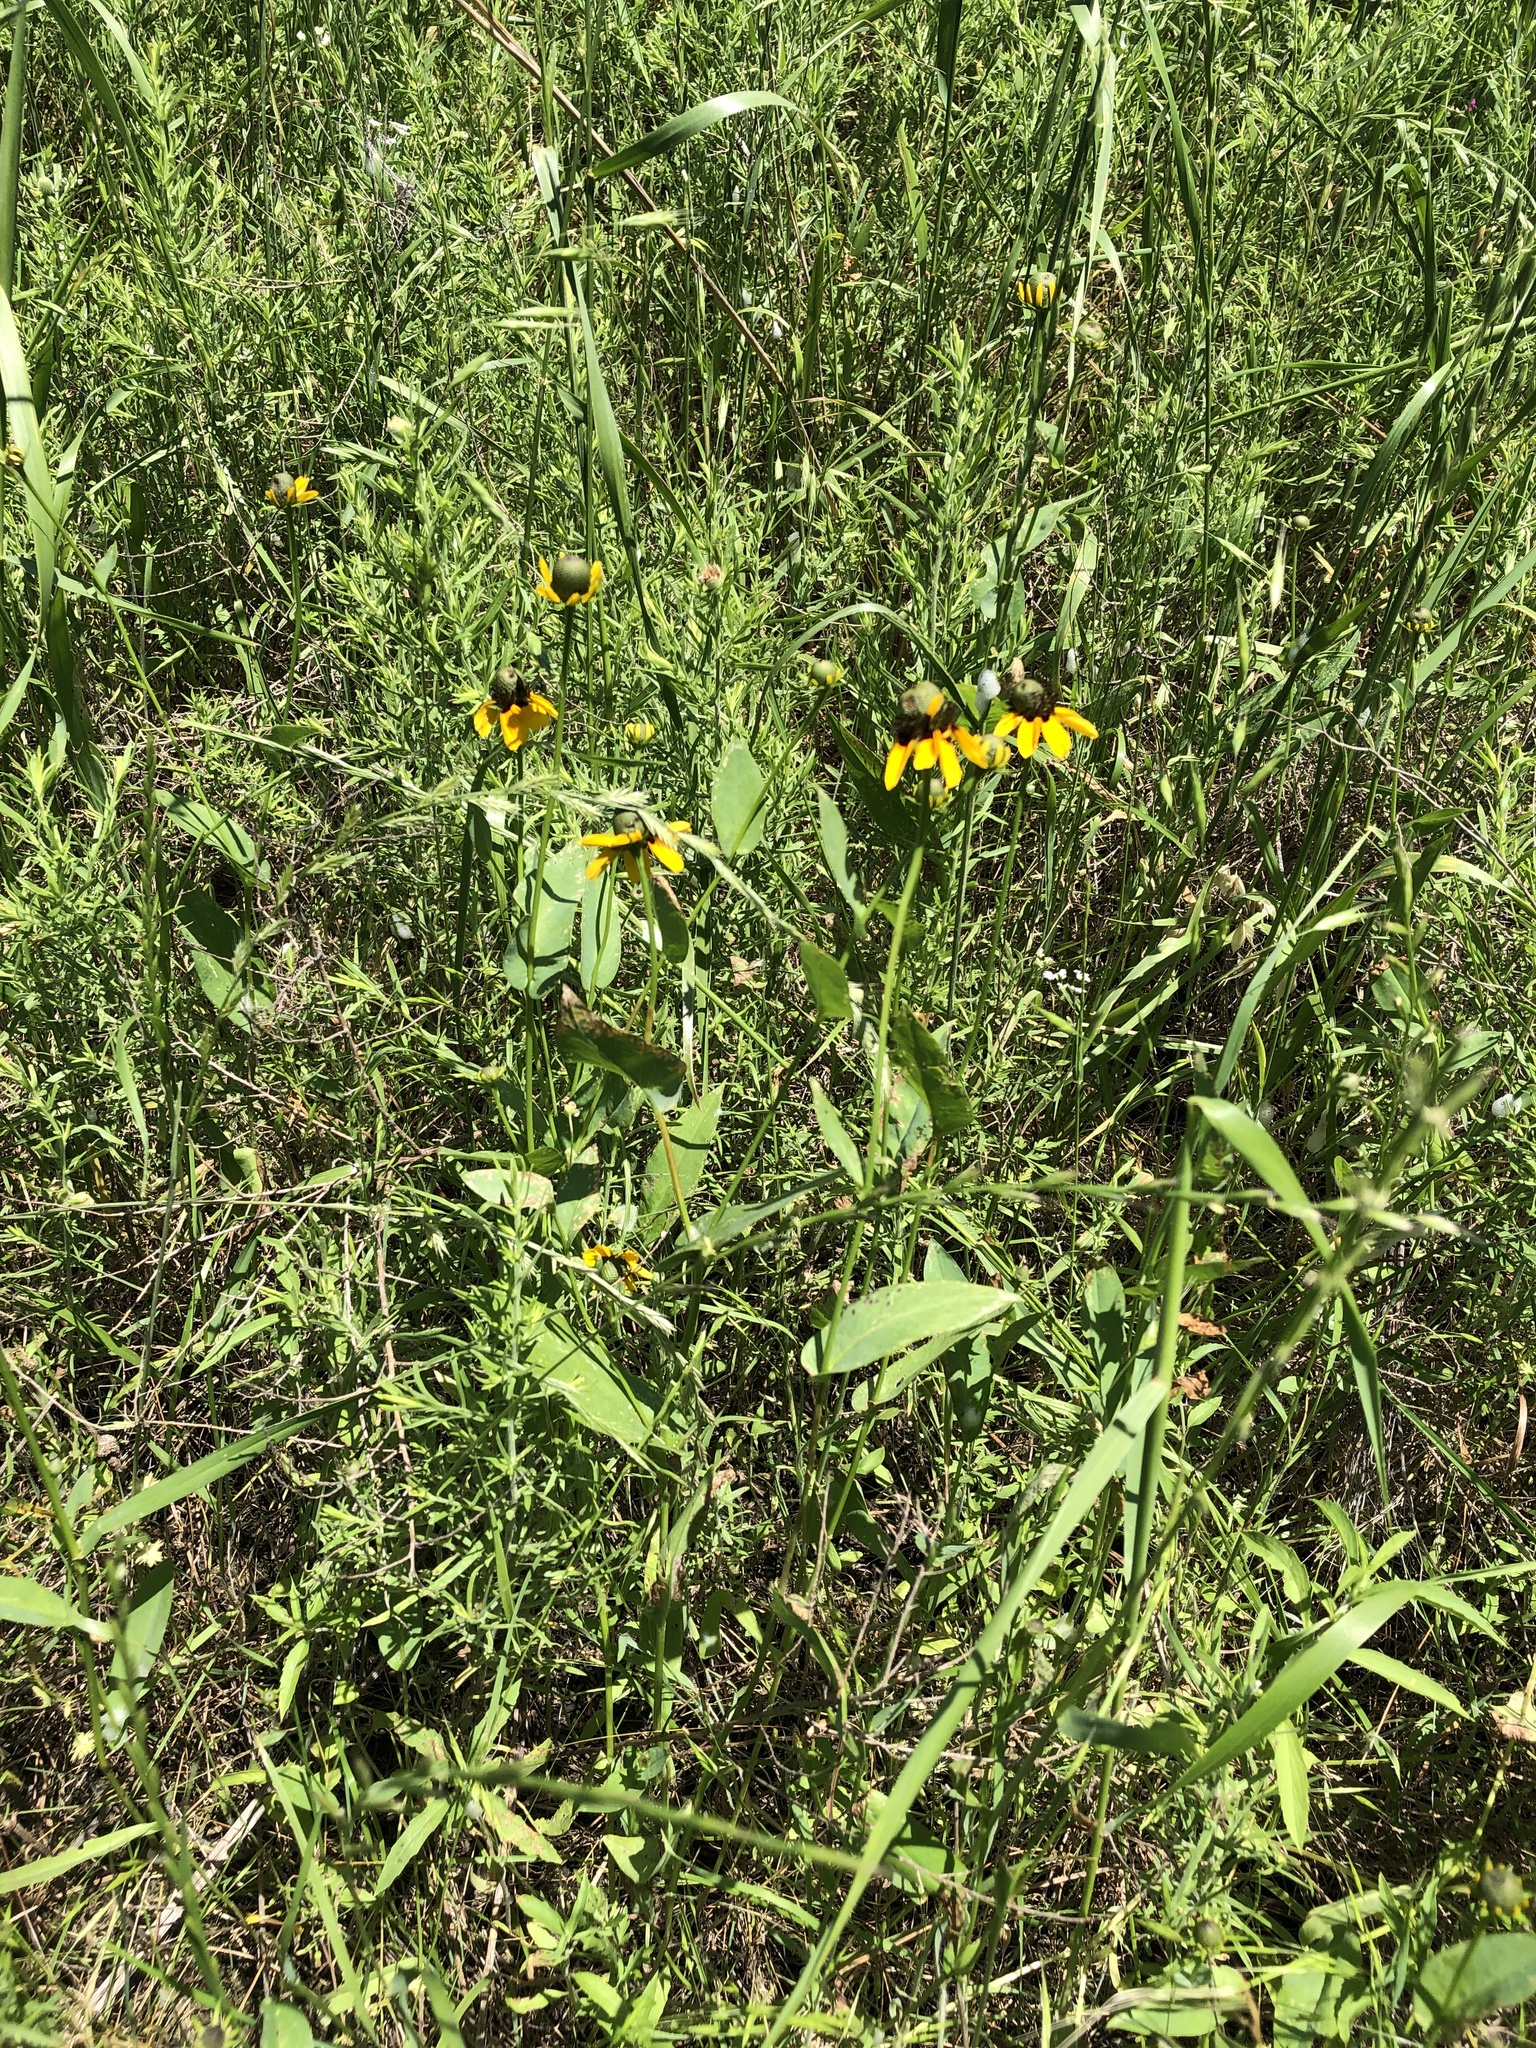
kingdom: Plantae
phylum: Tracheophyta
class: Magnoliopsida
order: Asterales
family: Asteraceae
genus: Rudbeckia
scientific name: Rudbeckia amplexicaulis
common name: Clasping-leaf coneflower
